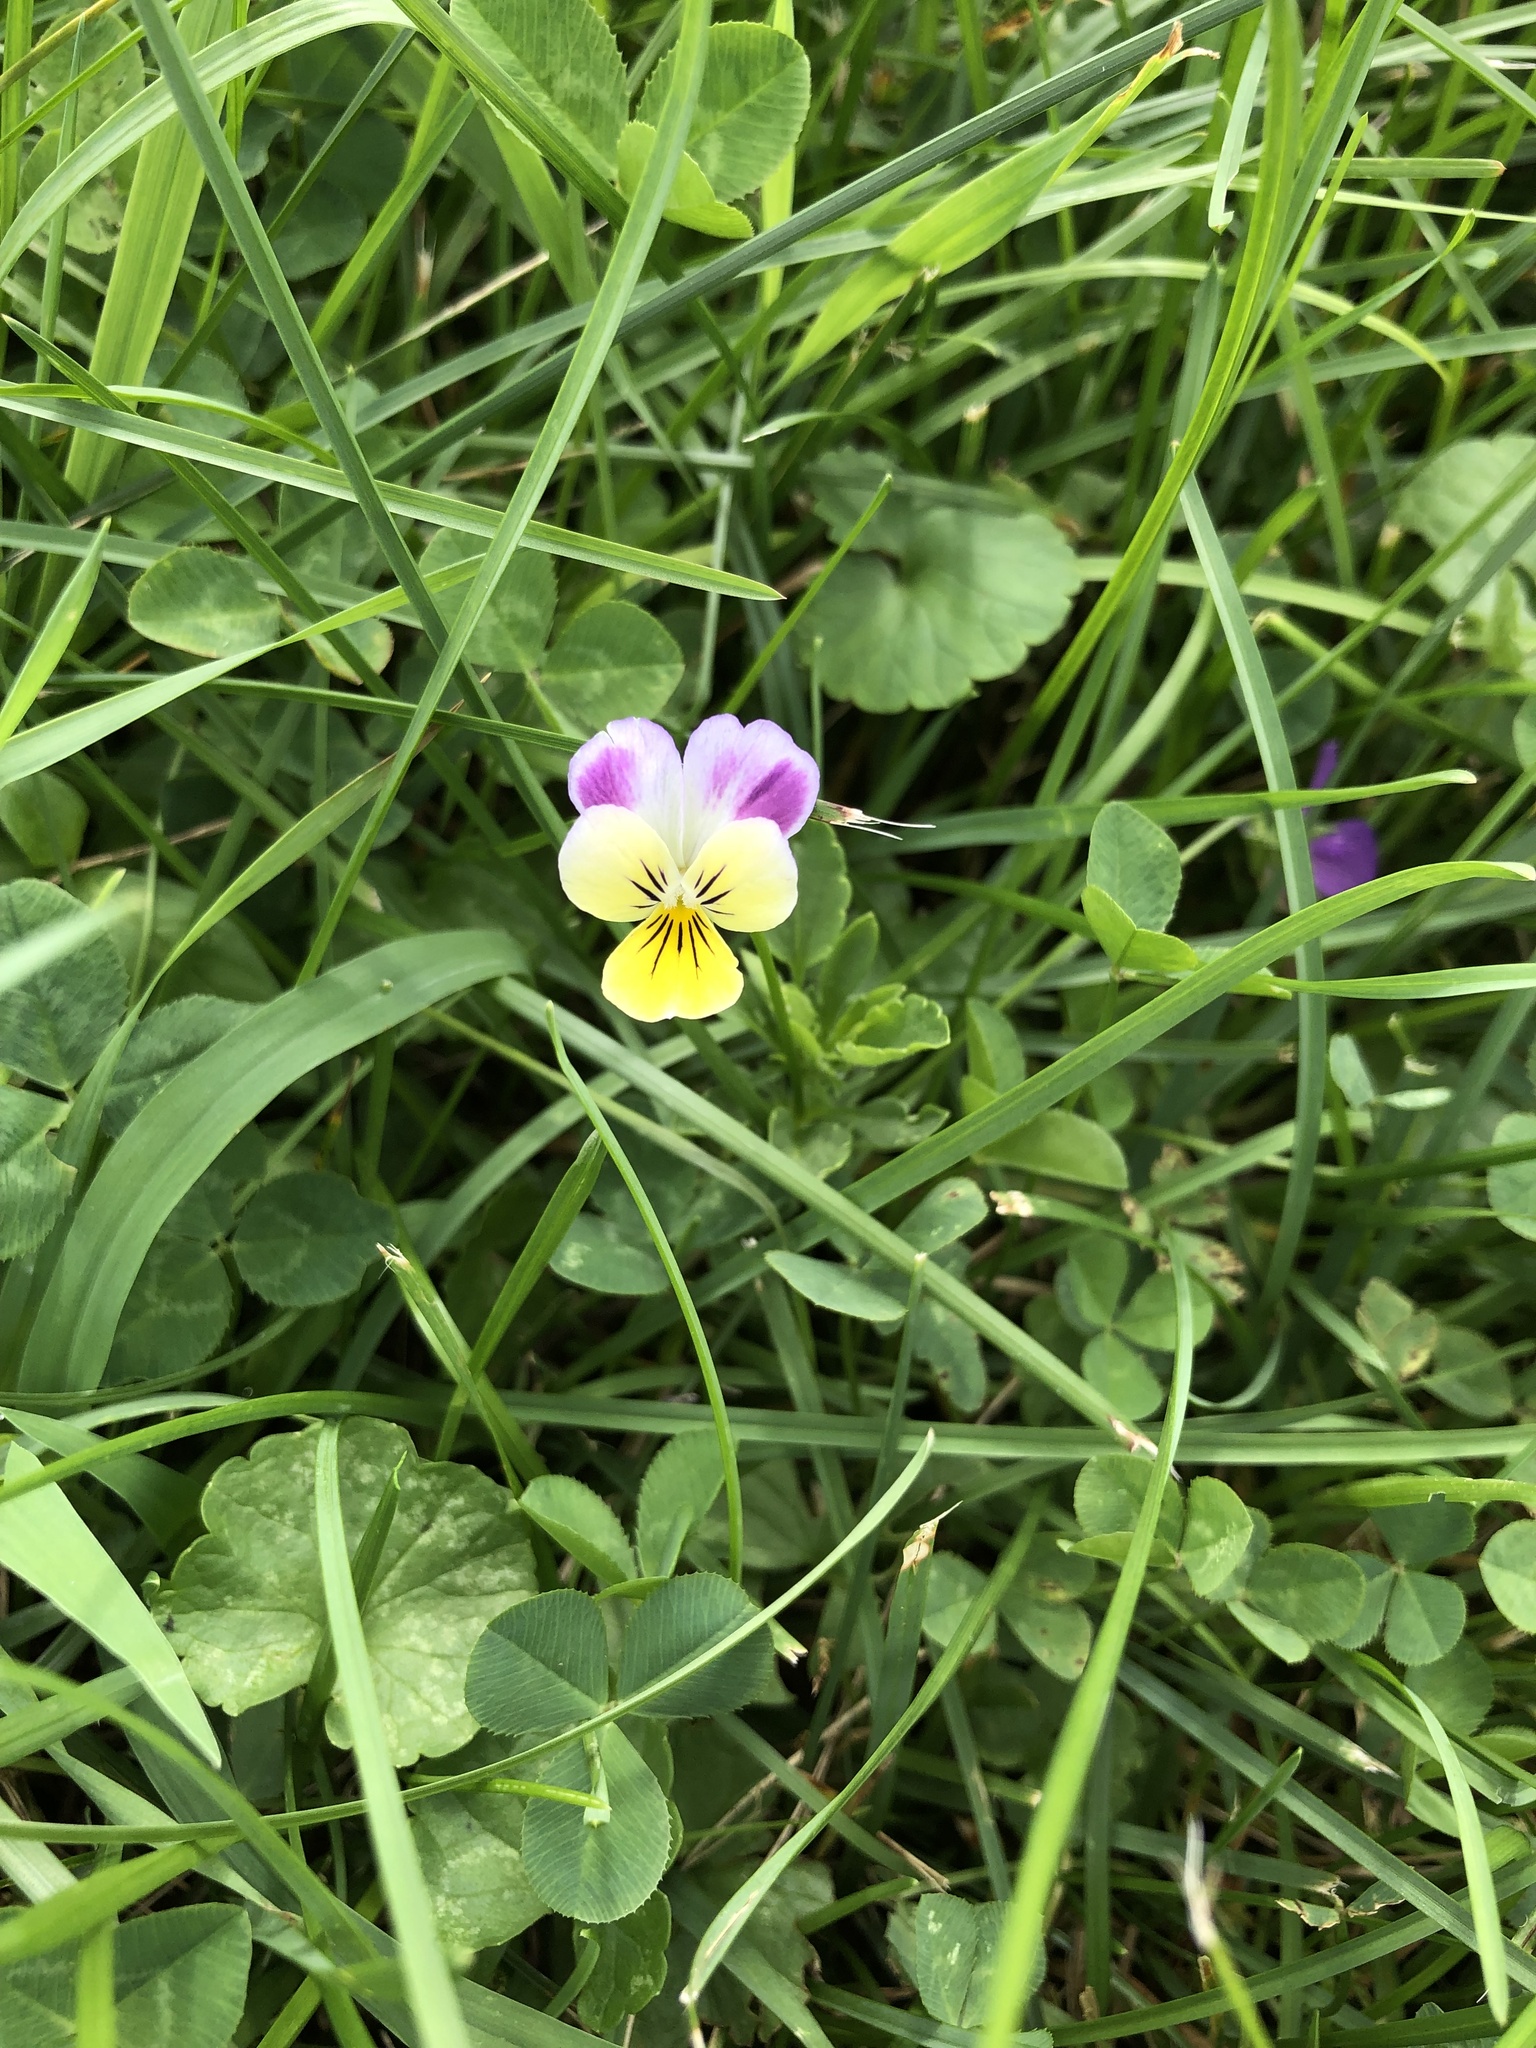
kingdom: Plantae
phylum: Tracheophyta
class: Magnoliopsida
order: Malpighiales
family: Violaceae
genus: Viola
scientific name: Viola williamsii
